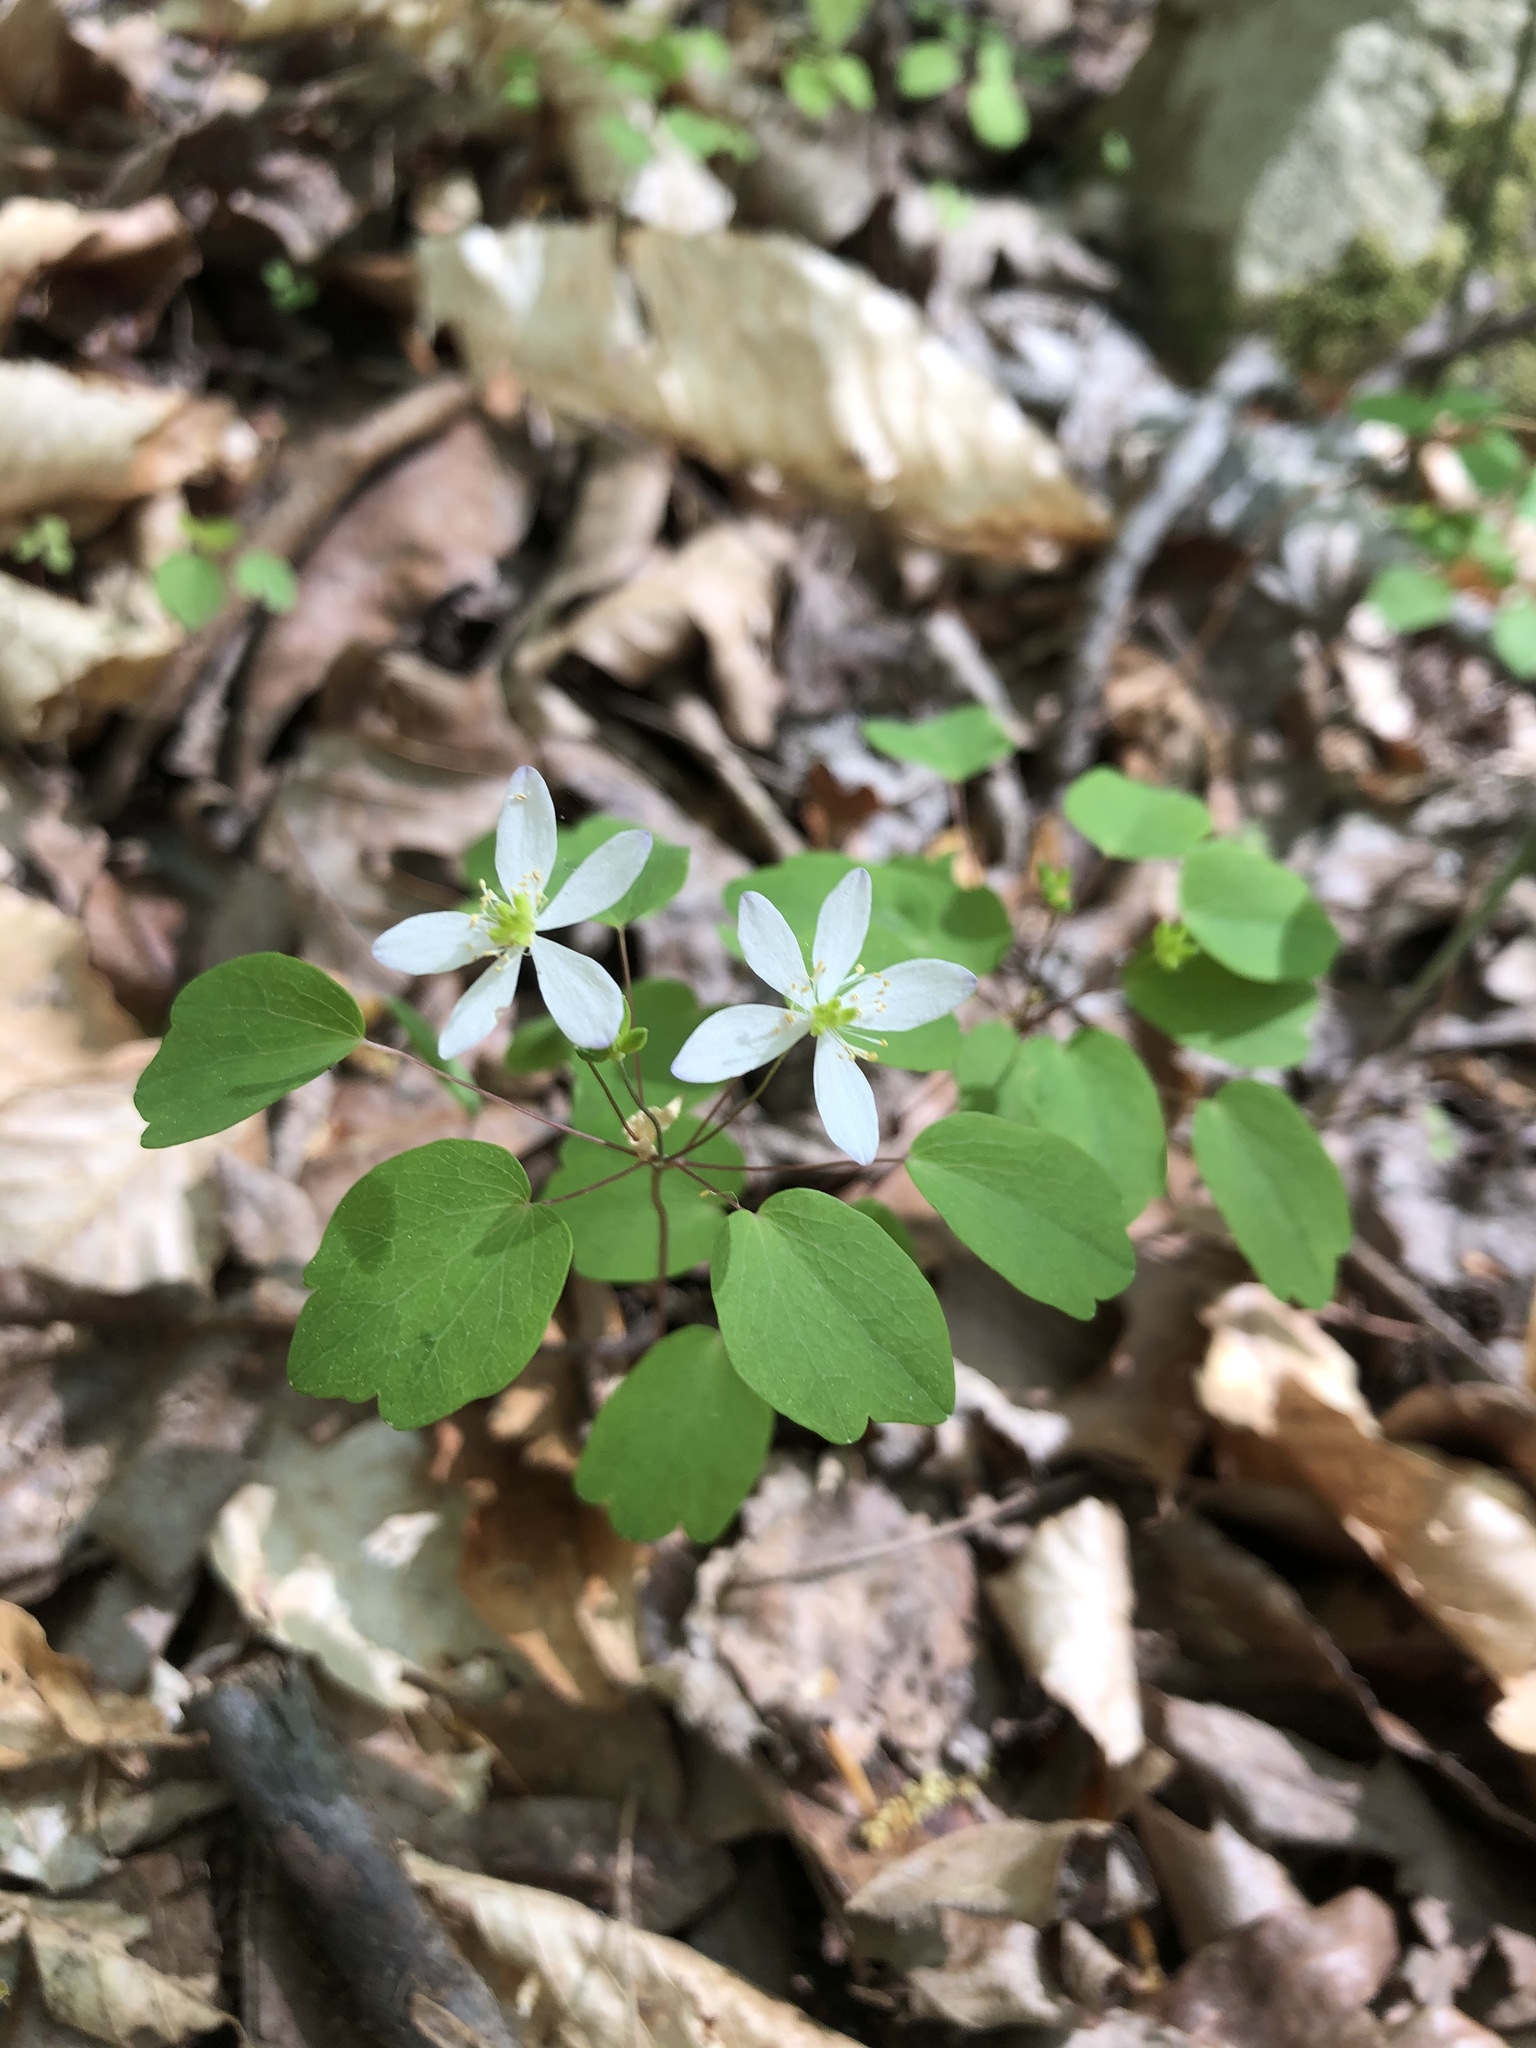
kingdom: Plantae
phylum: Tracheophyta
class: Magnoliopsida
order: Ranunculales
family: Ranunculaceae
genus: Thalictrum
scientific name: Thalictrum thalictroides
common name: Rue-anemone
